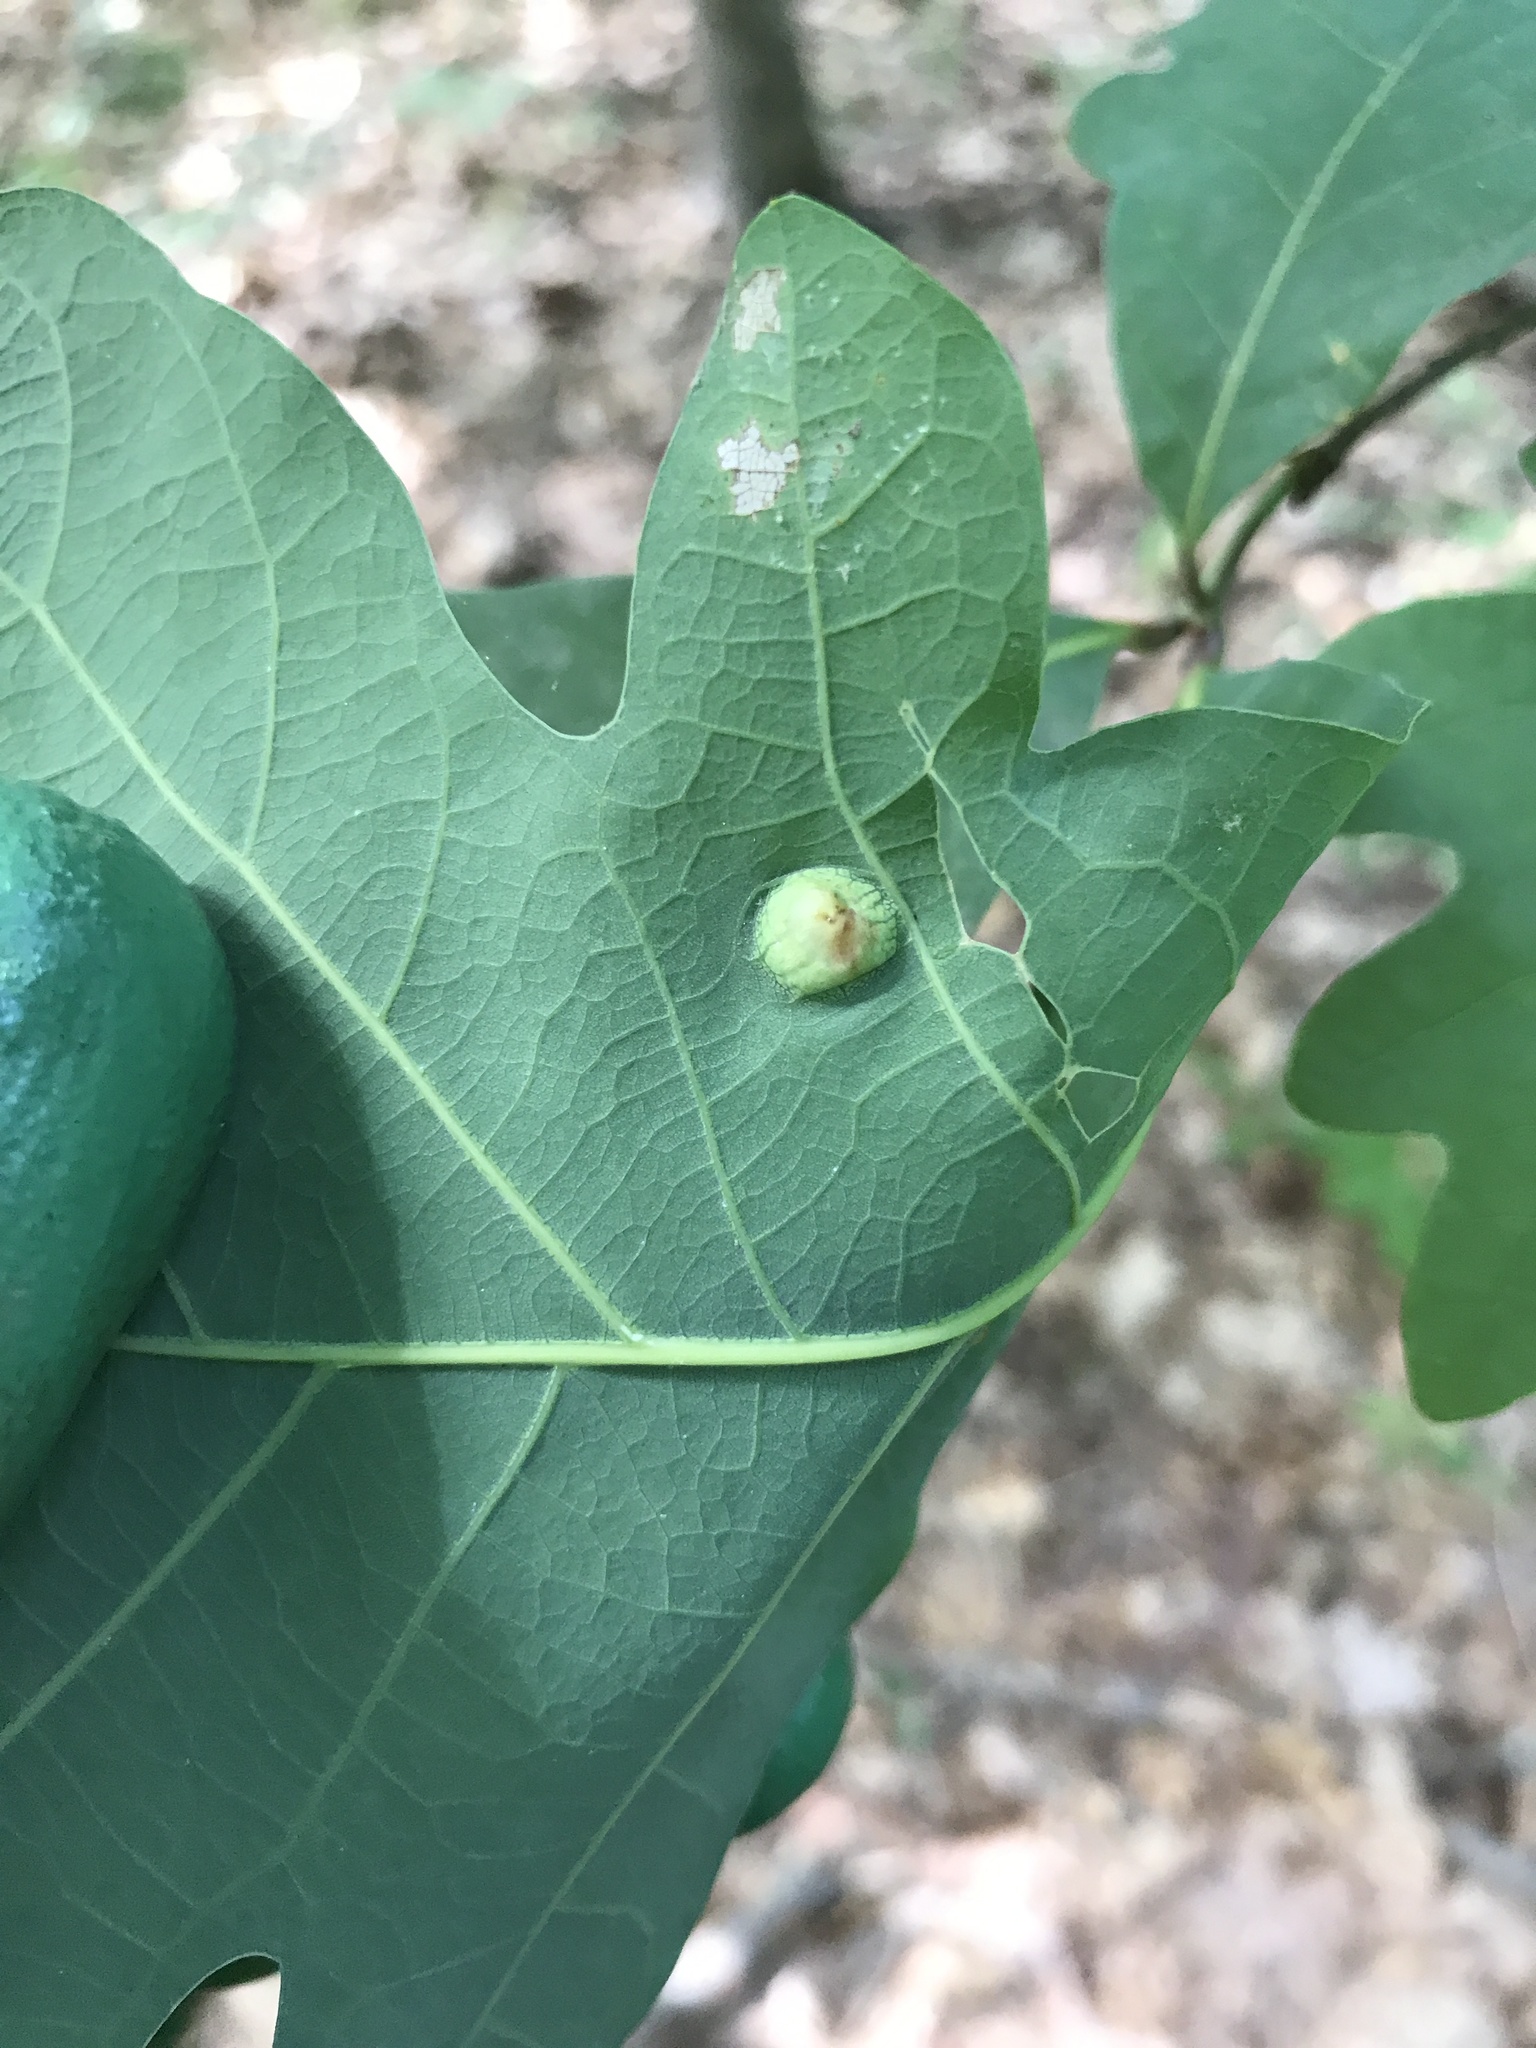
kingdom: Animalia
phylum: Arthropoda
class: Insecta
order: Hymenoptera
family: Cynipidae
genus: Callirhytis
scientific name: Callirhytis
